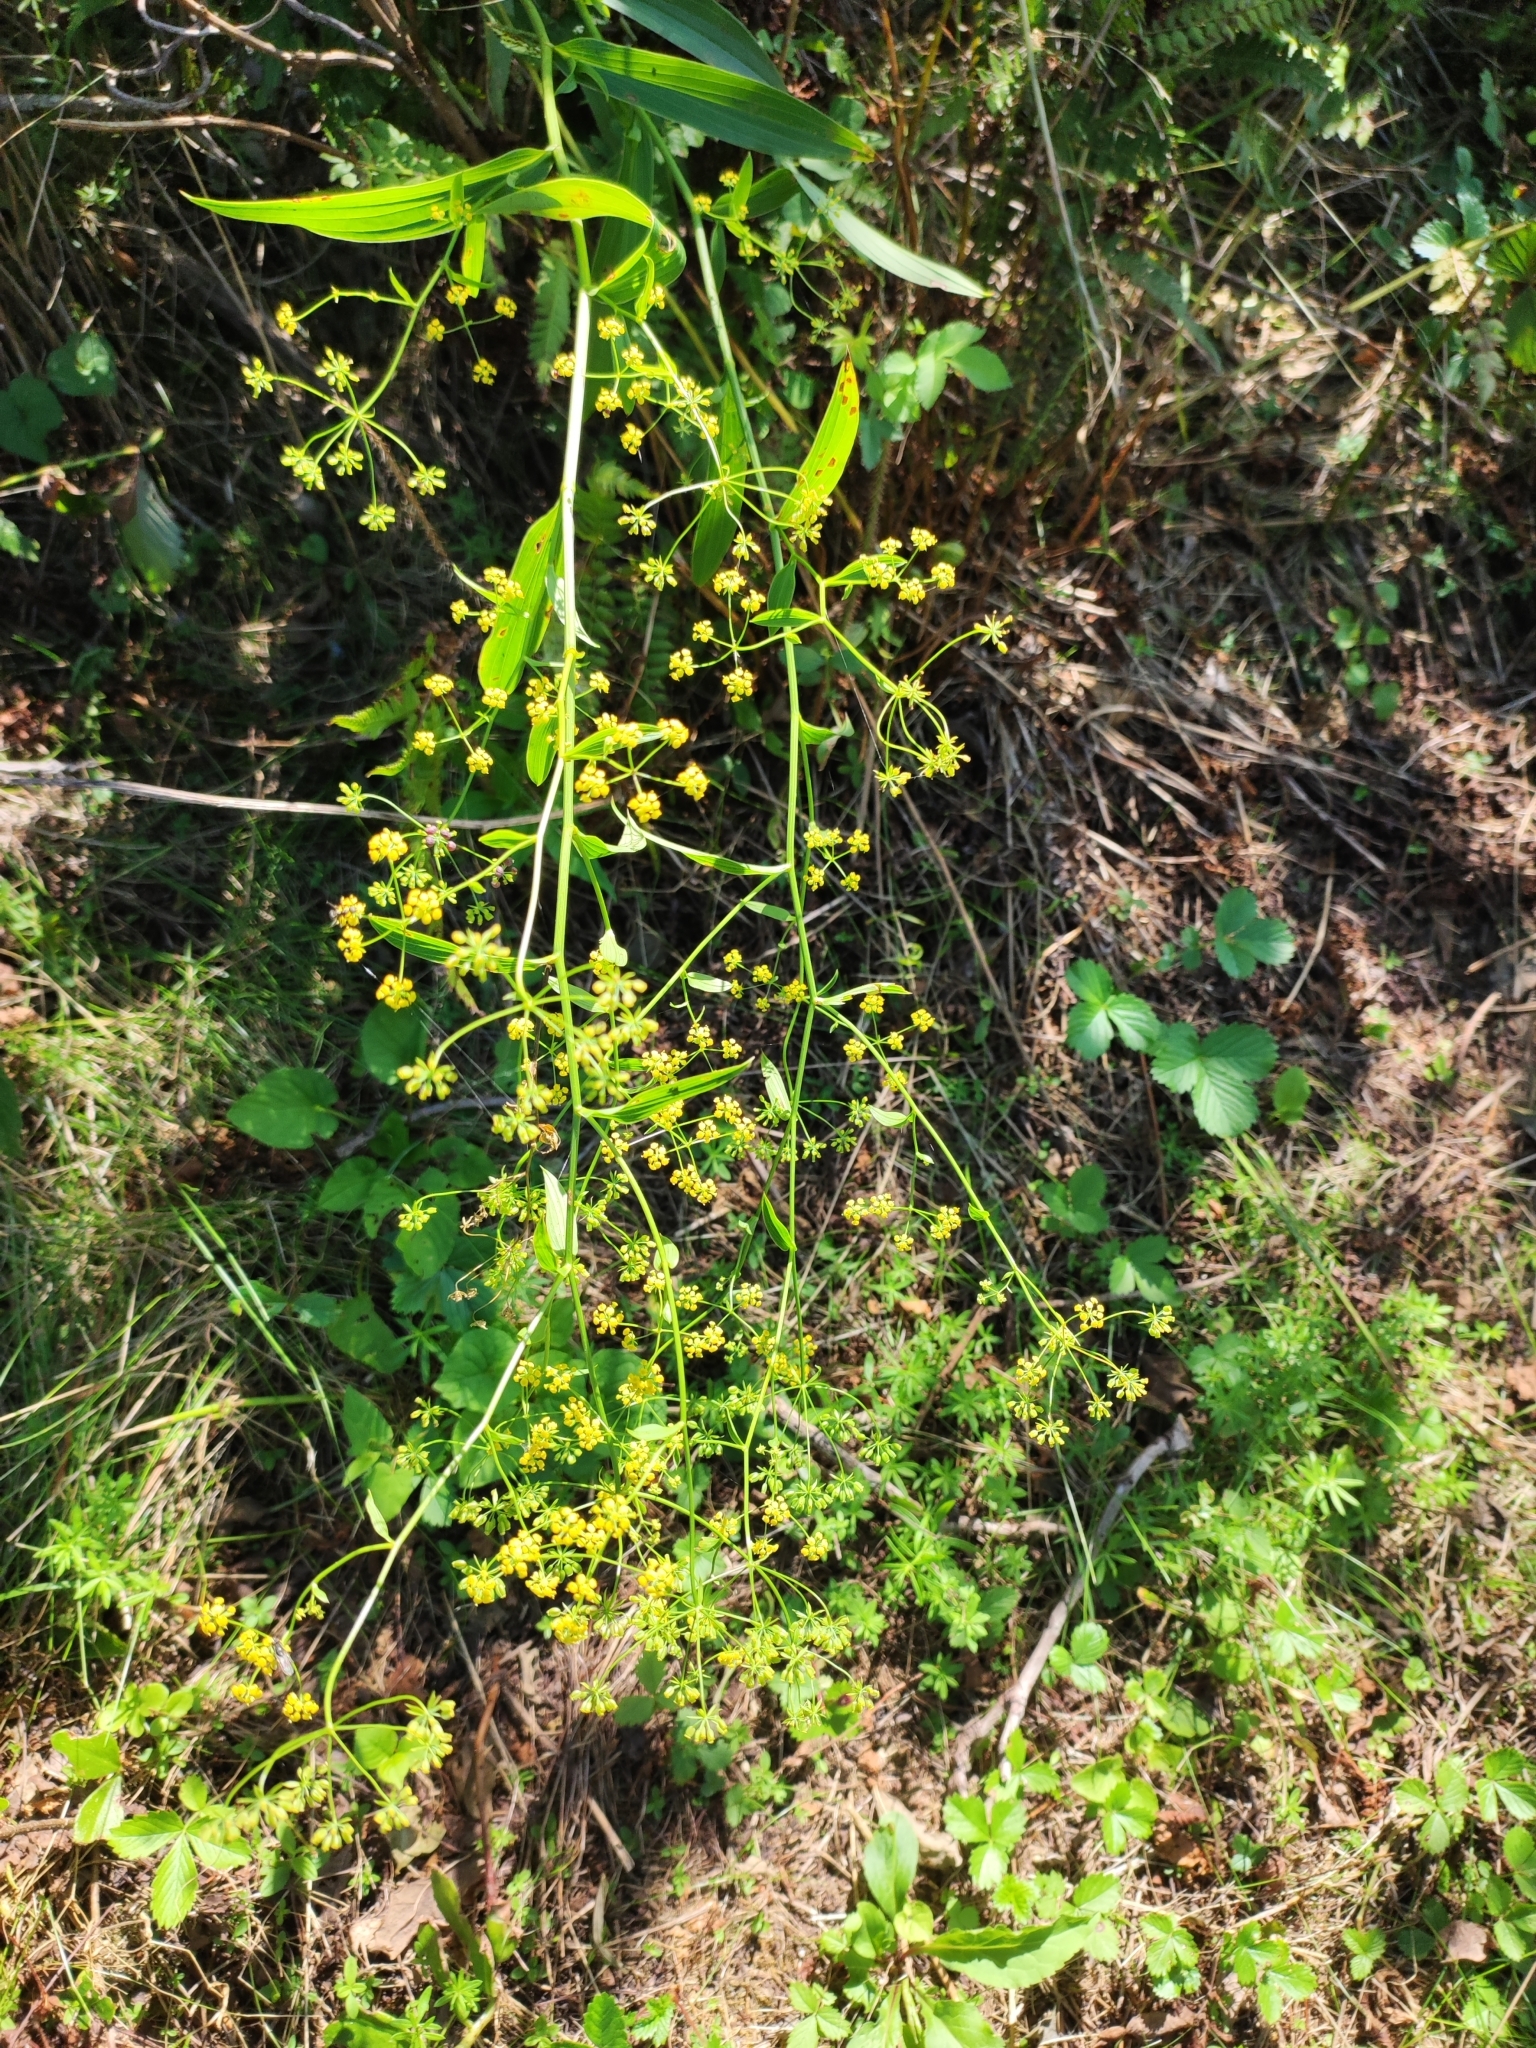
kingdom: Plantae
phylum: Tracheophyta
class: Magnoliopsida
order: Apiales
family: Apiaceae
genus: Bupleurum
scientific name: Bupleurum komarovianum
